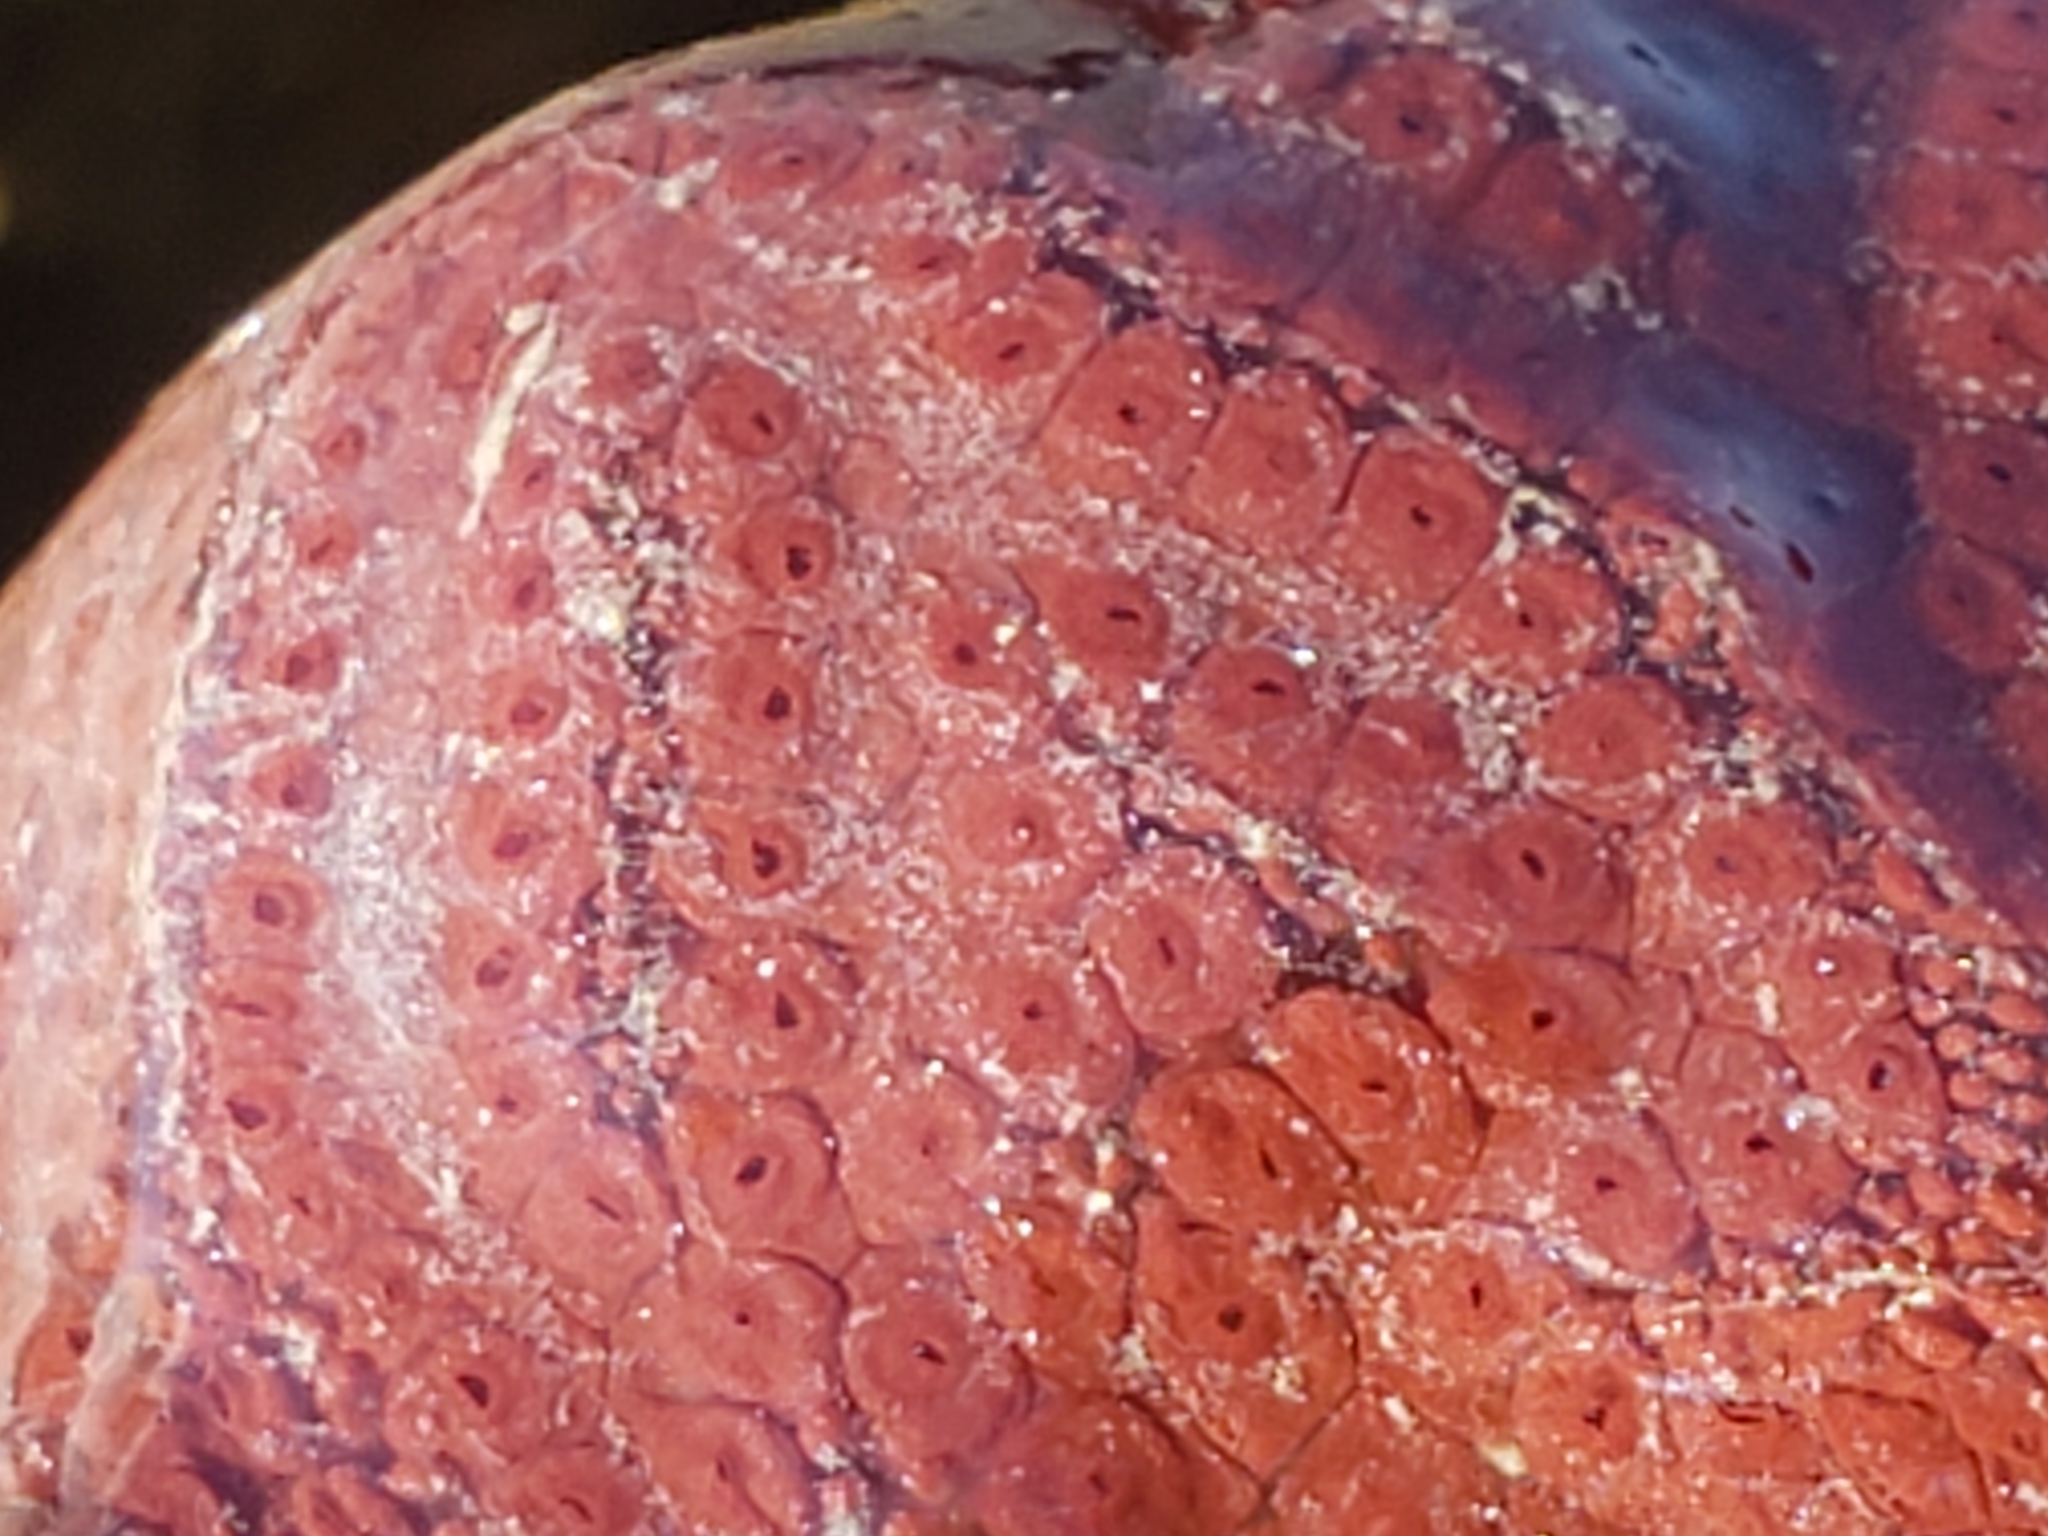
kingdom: Animalia
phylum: Chordata
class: Ascidiacea
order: Stolidobranchia
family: Styelidae
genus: Botrylloides
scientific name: Botrylloides violaceus
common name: Colonial sea squirt
